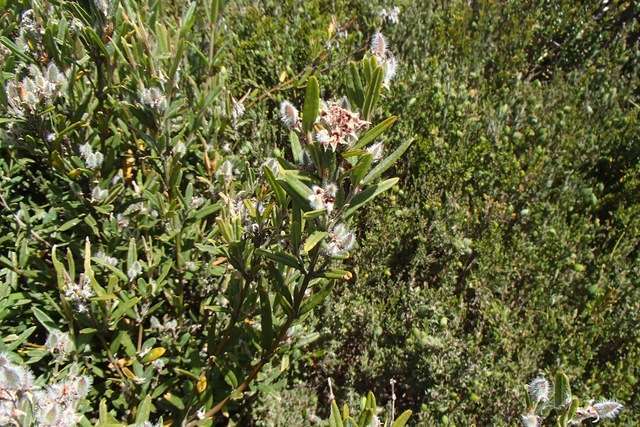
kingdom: Plantae
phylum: Tracheophyta
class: Magnoliopsida
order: Fabales
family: Fabaceae
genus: Podolobium
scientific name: Podolobium alpestre
